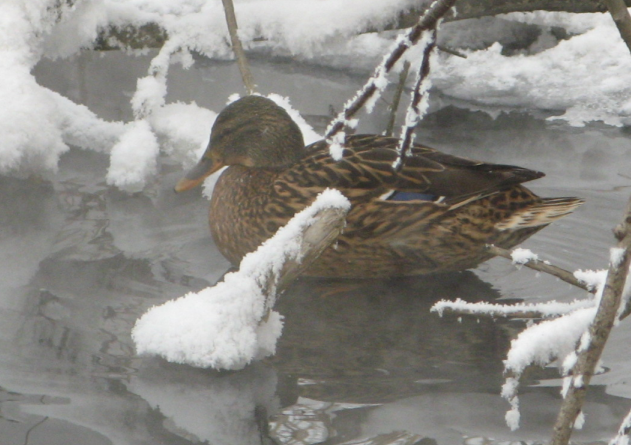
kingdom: Animalia
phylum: Chordata
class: Aves
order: Anseriformes
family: Anatidae
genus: Anas
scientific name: Anas platyrhynchos
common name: Mallard
